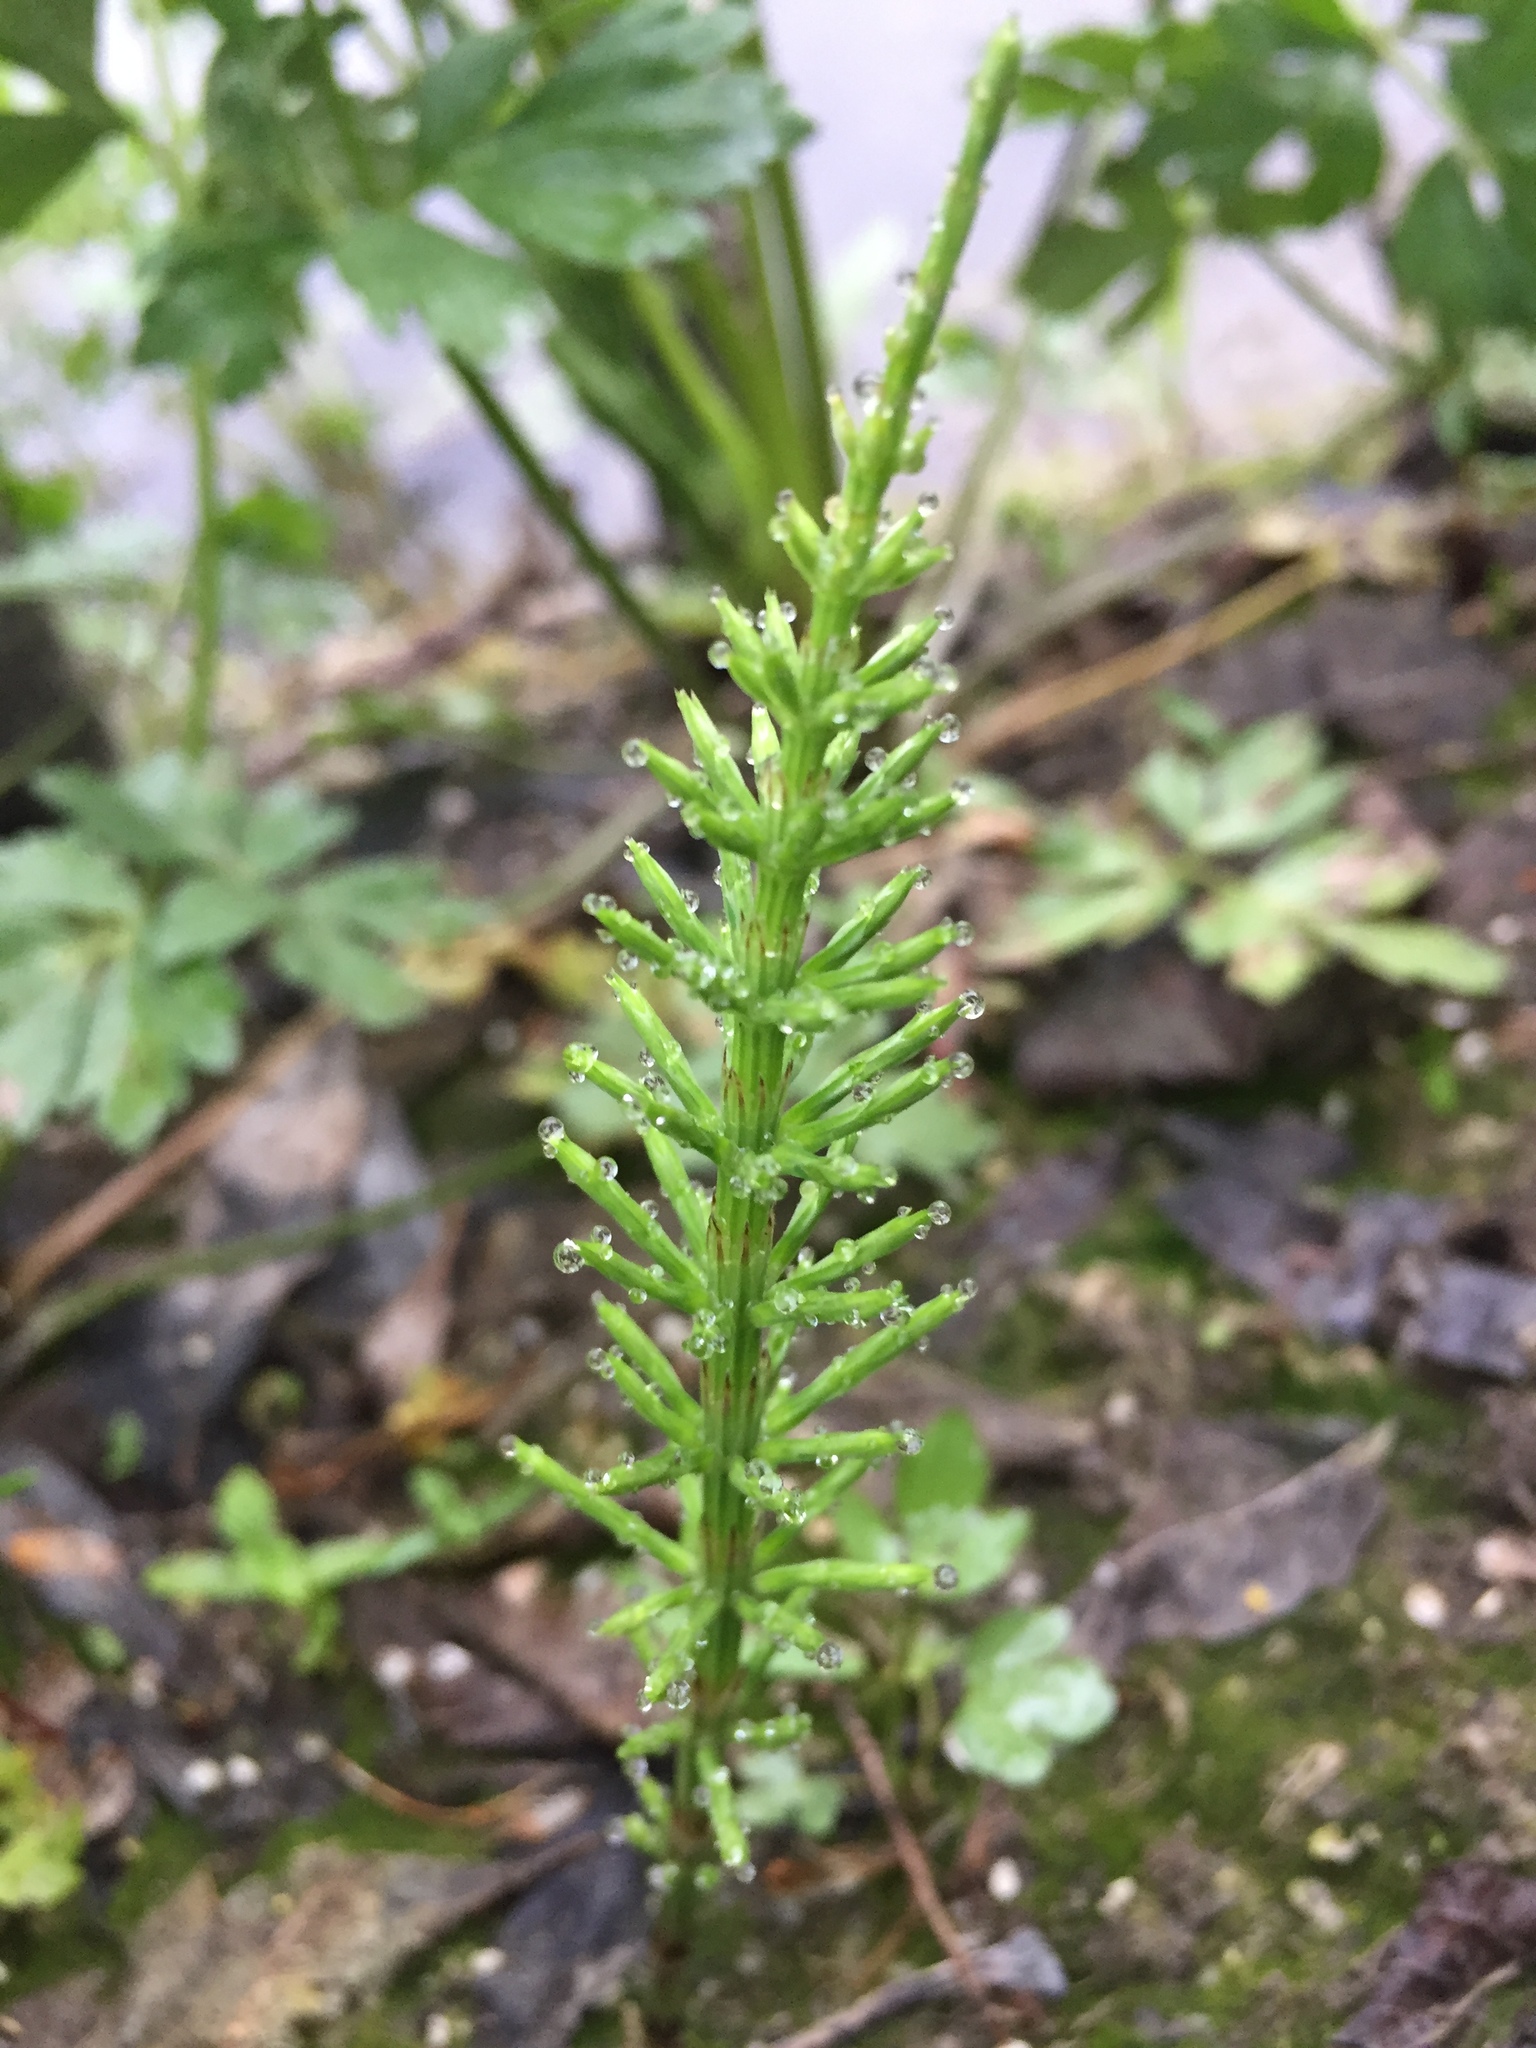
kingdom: Plantae
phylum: Tracheophyta
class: Polypodiopsida
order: Equisetales
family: Equisetaceae
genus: Equisetum
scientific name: Equisetum arvense
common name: Field horsetail
